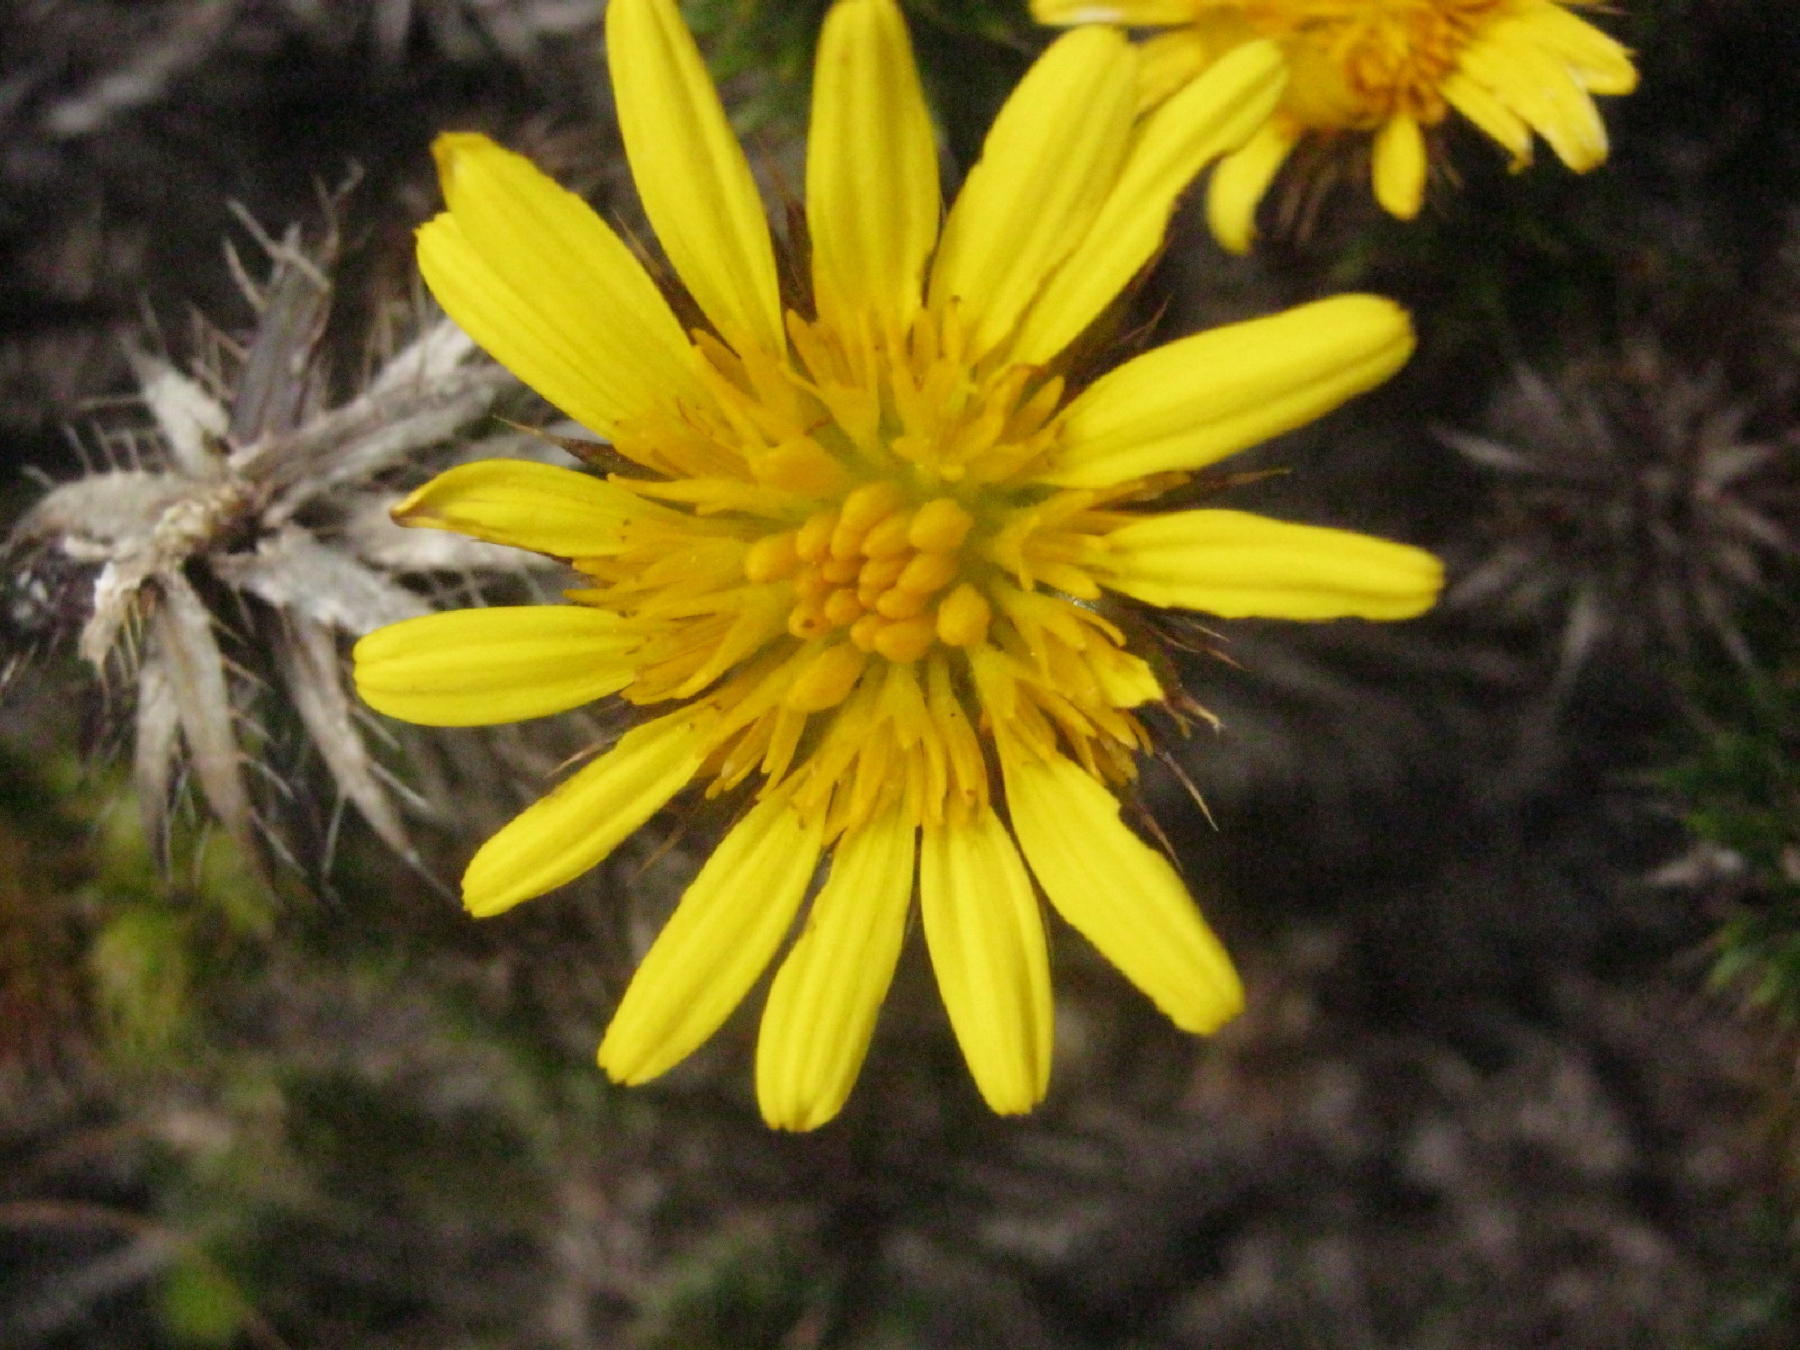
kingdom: Plantae
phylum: Tracheophyta
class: Magnoliopsida
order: Asterales
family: Asteraceae
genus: Cullumia
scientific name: Cullumia carlinoides
